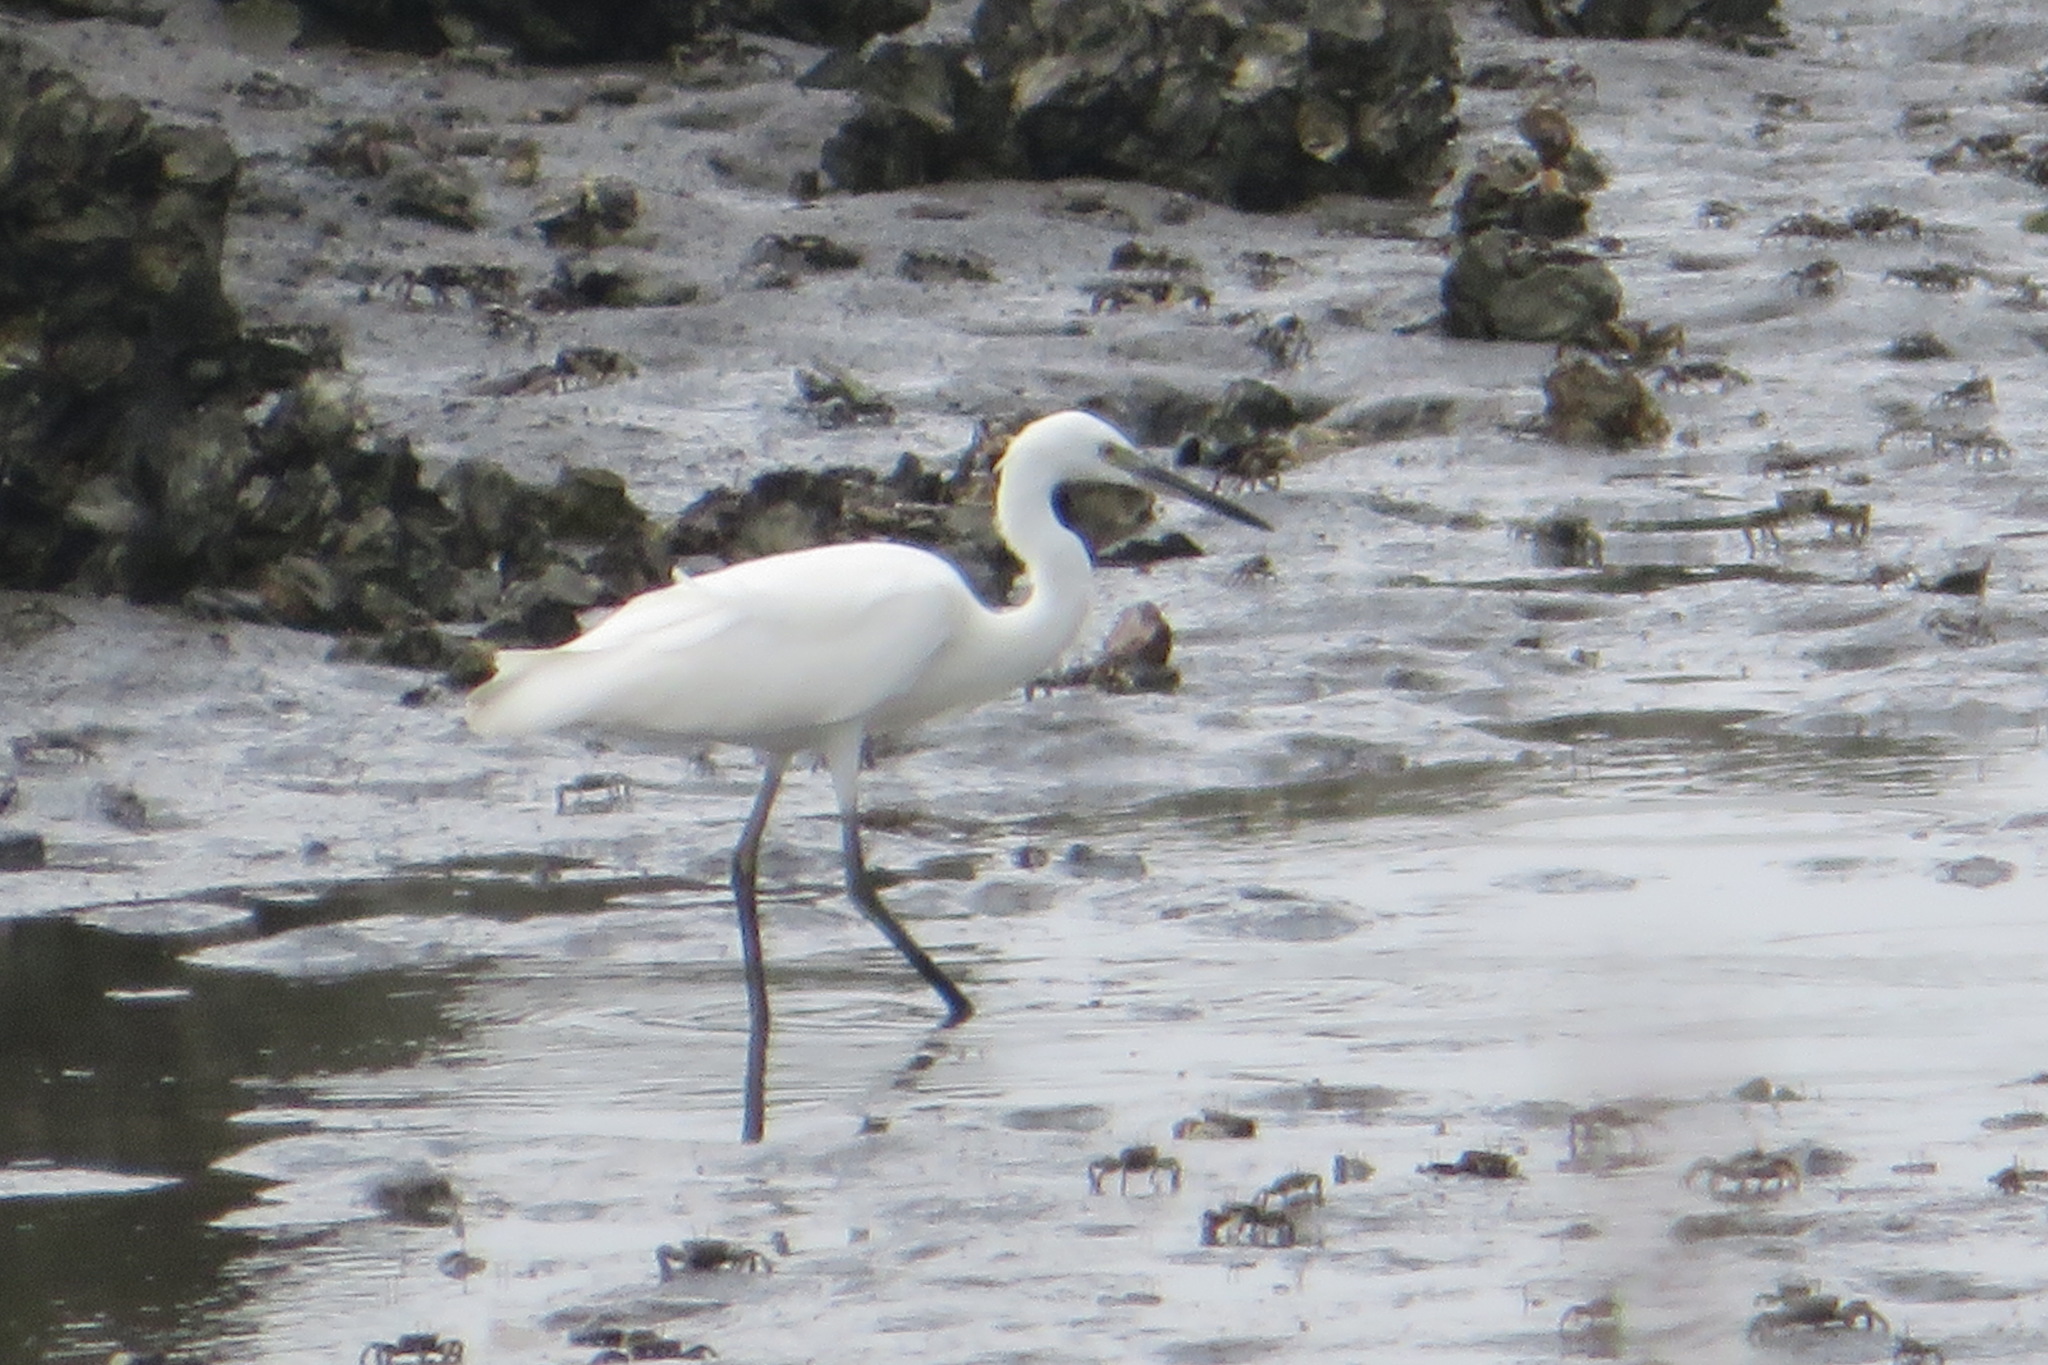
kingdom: Animalia
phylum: Chordata
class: Aves
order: Pelecaniformes
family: Ardeidae
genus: Egretta
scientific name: Egretta garzetta
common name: Little egret
